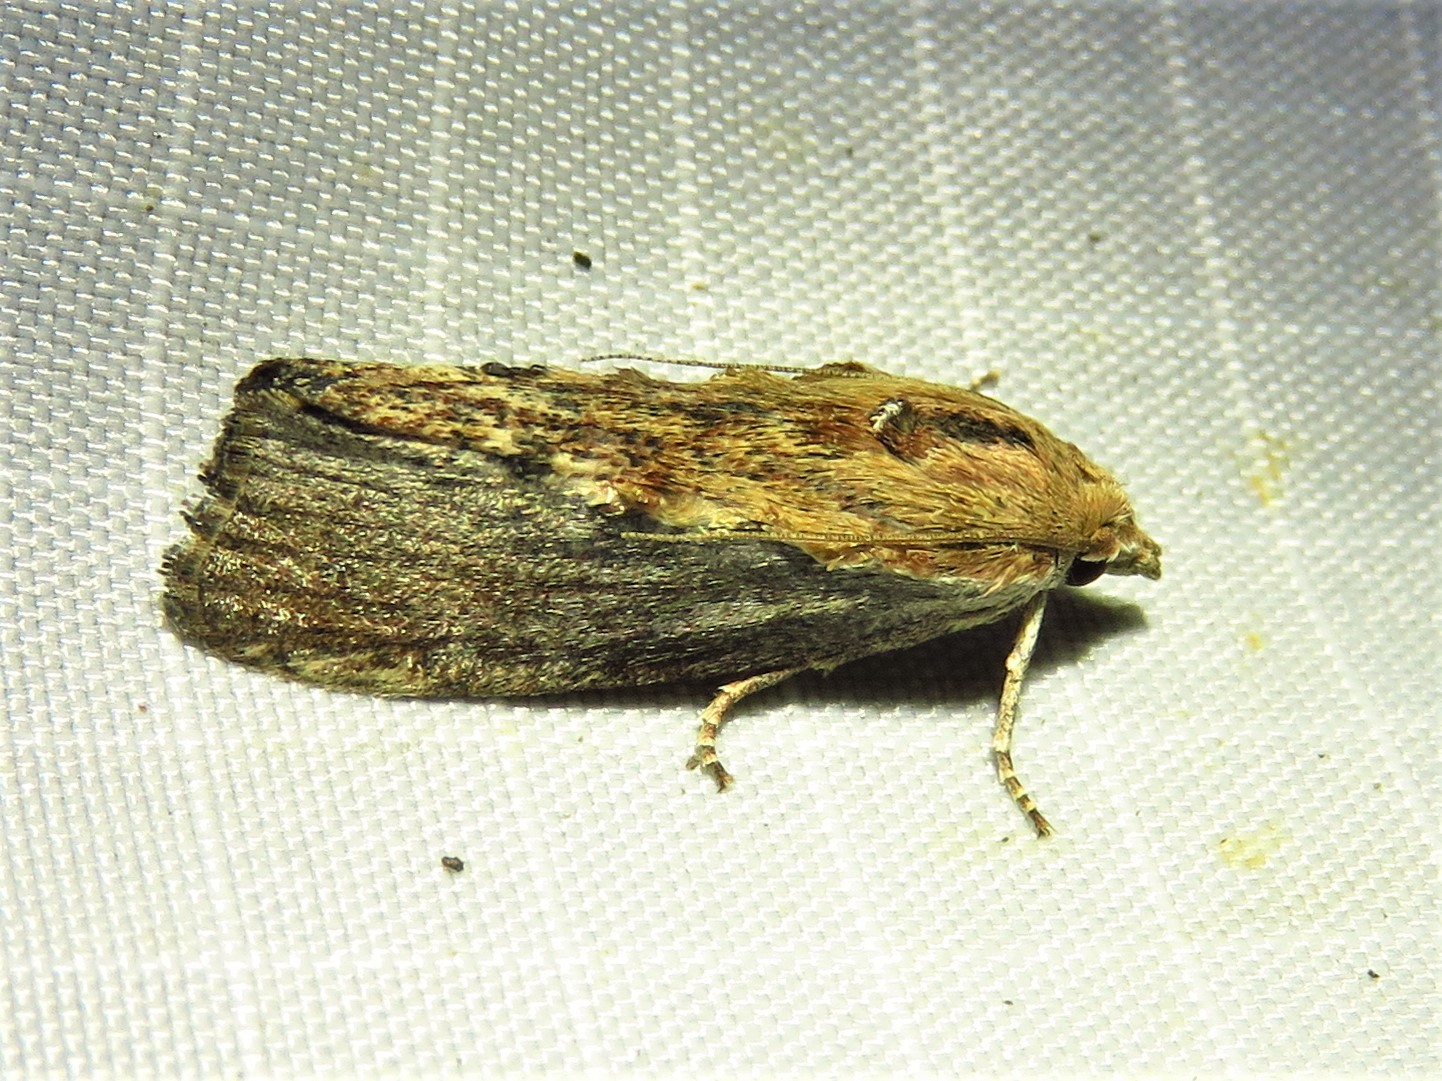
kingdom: Animalia
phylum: Arthropoda
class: Insecta
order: Lepidoptera
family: Pyralidae
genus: Galleria
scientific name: Galleria mellonella
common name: Greater wax moth
